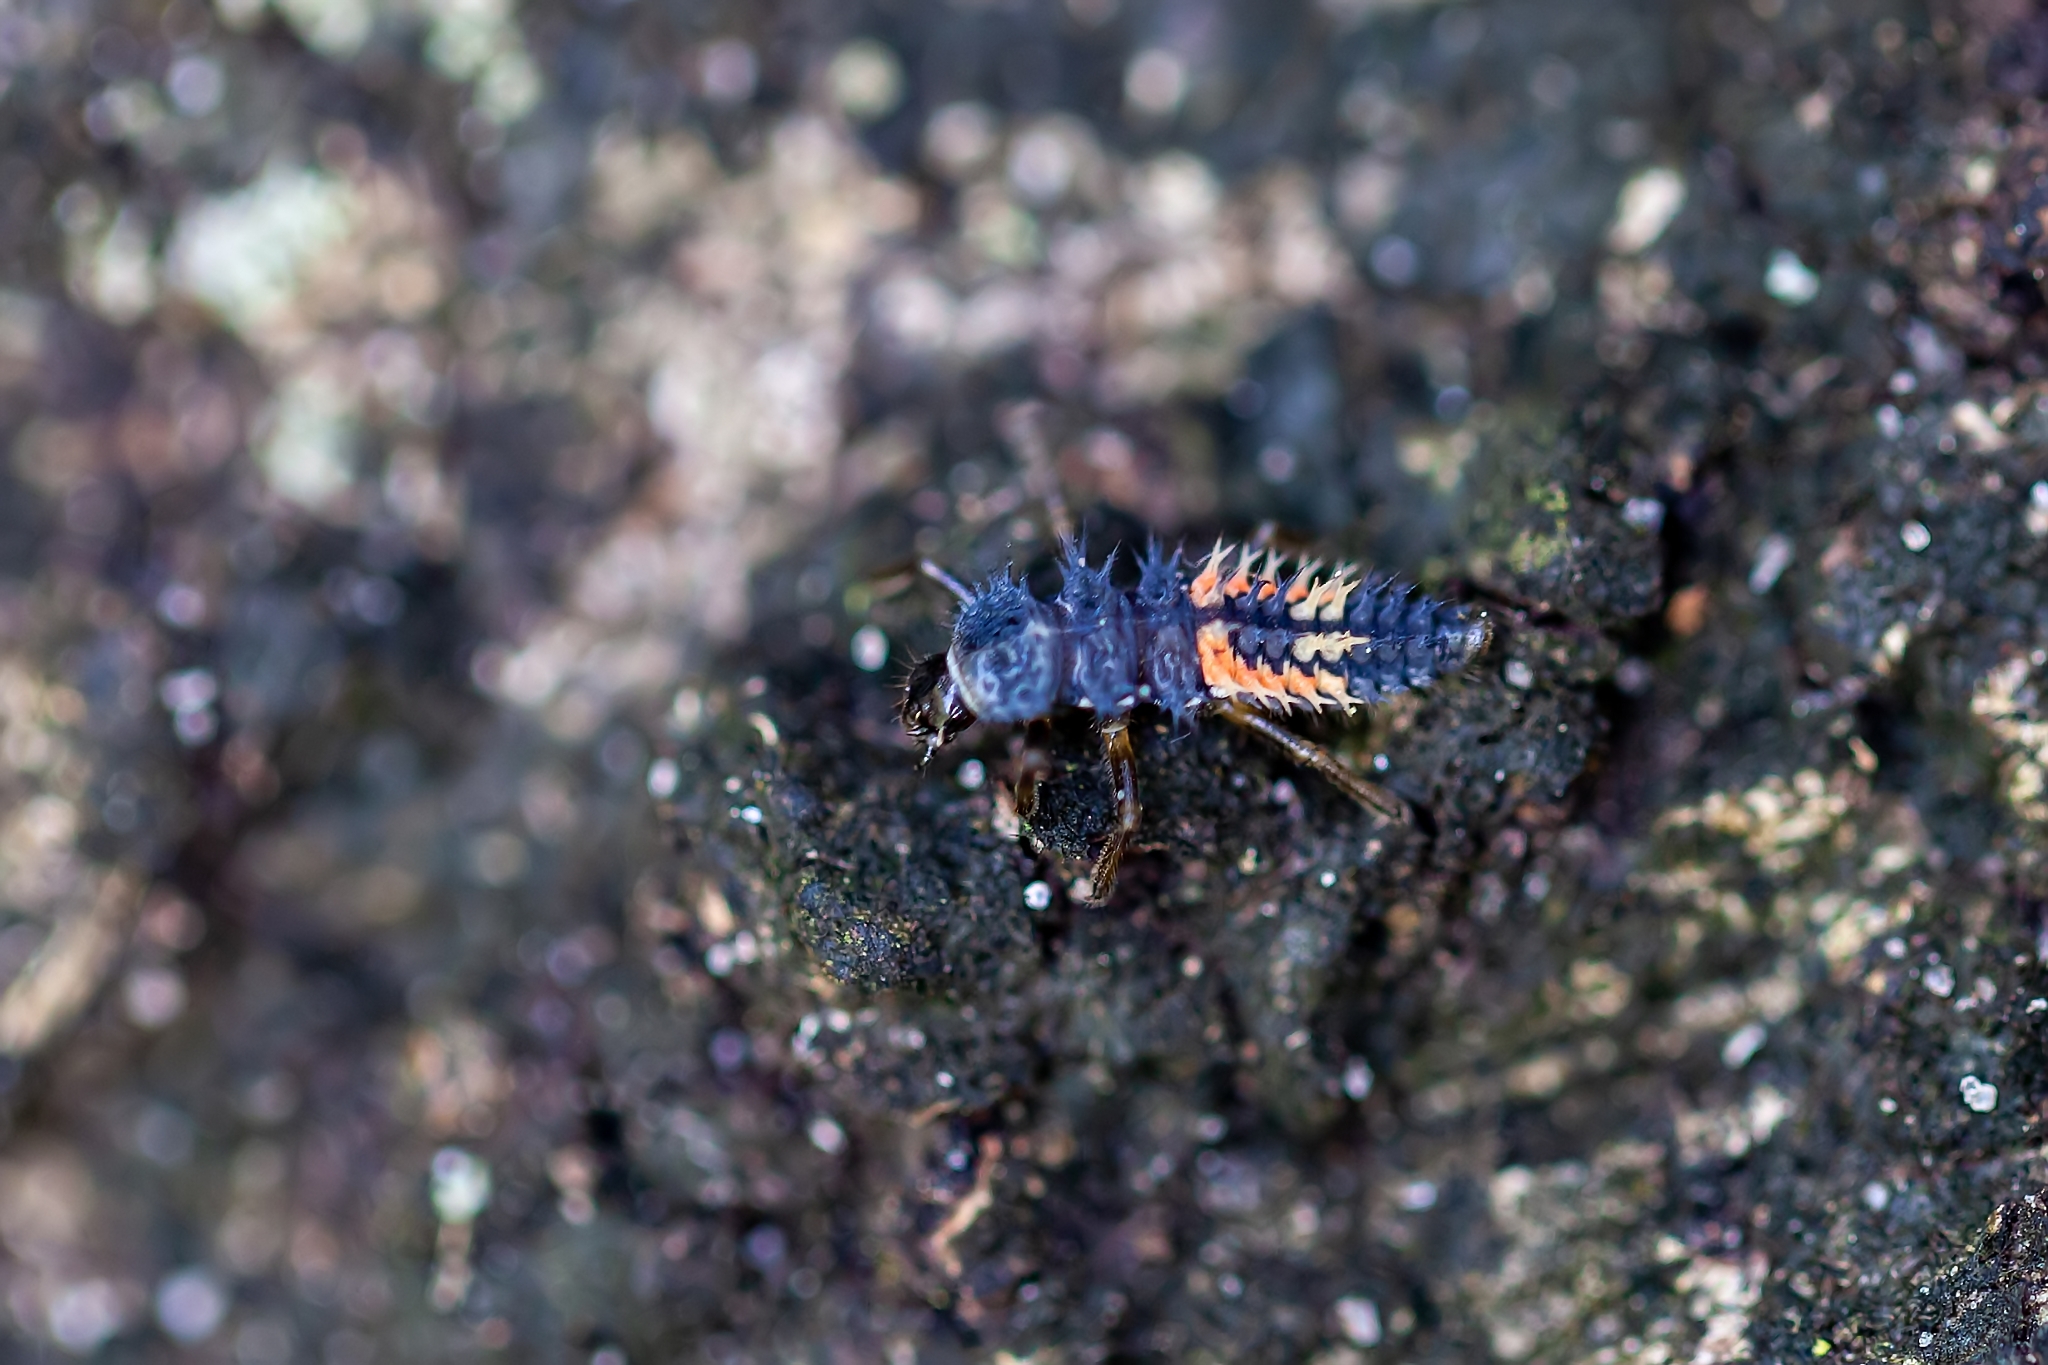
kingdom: Animalia
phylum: Arthropoda
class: Insecta
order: Coleoptera
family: Coccinellidae
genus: Harmonia
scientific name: Harmonia axyridis
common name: Harlequin ladybird
